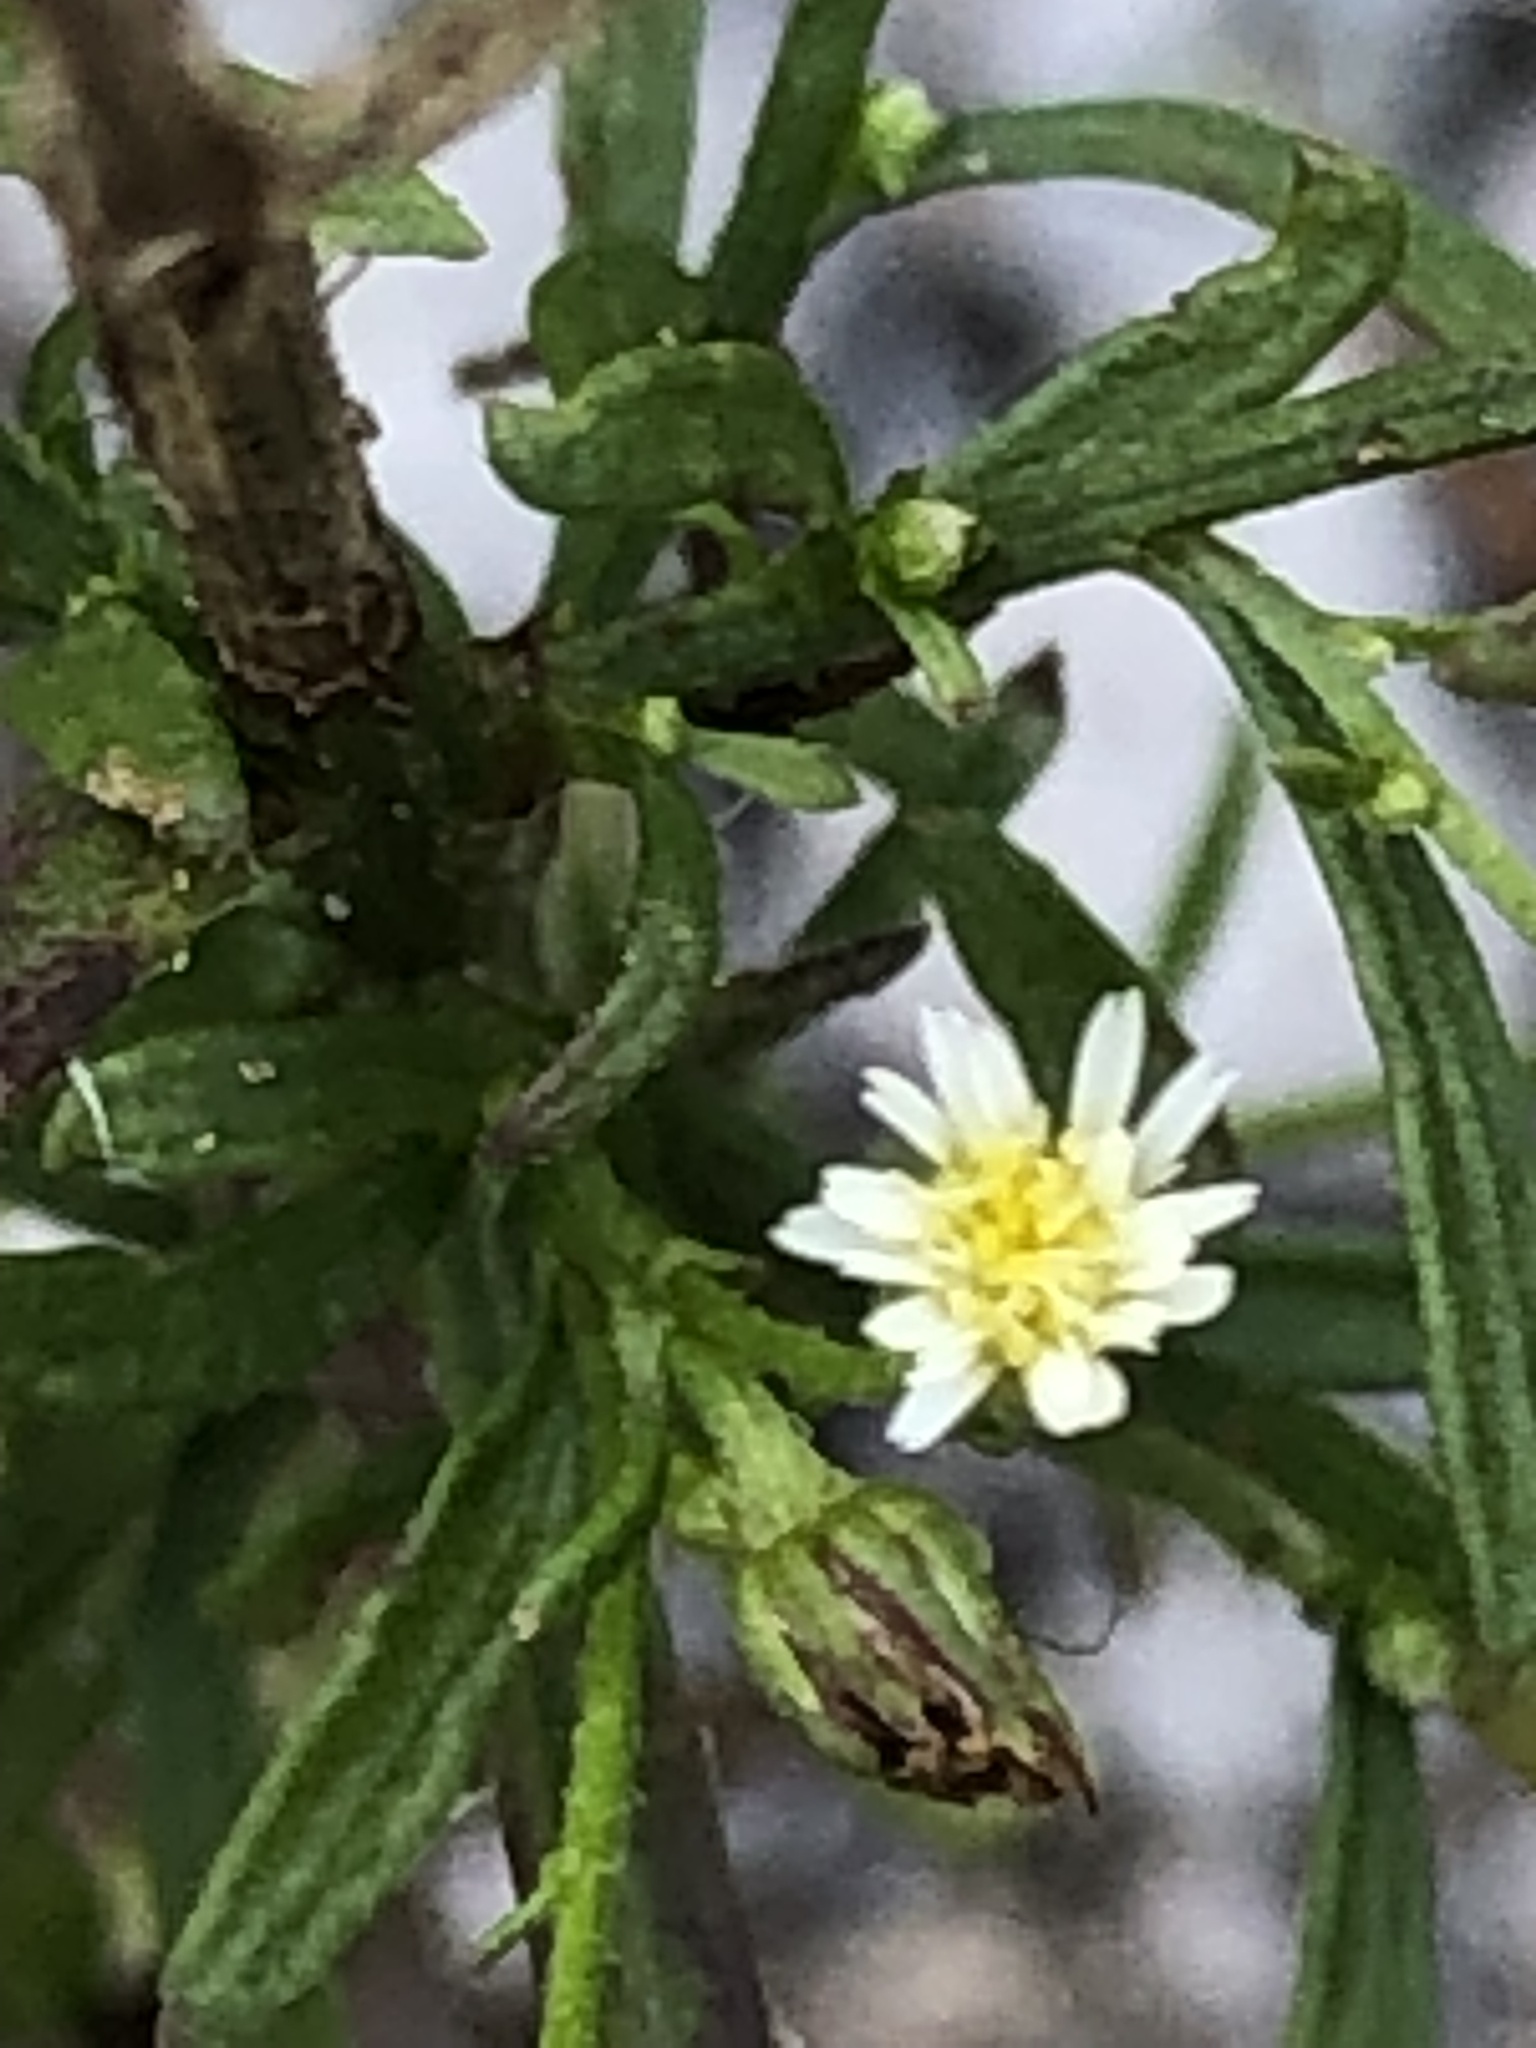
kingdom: Plantae
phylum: Tracheophyta
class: Magnoliopsida
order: Asterales
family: Asteraceae
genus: Erigeron
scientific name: Erigeron canadensis
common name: Canadian fleabane
